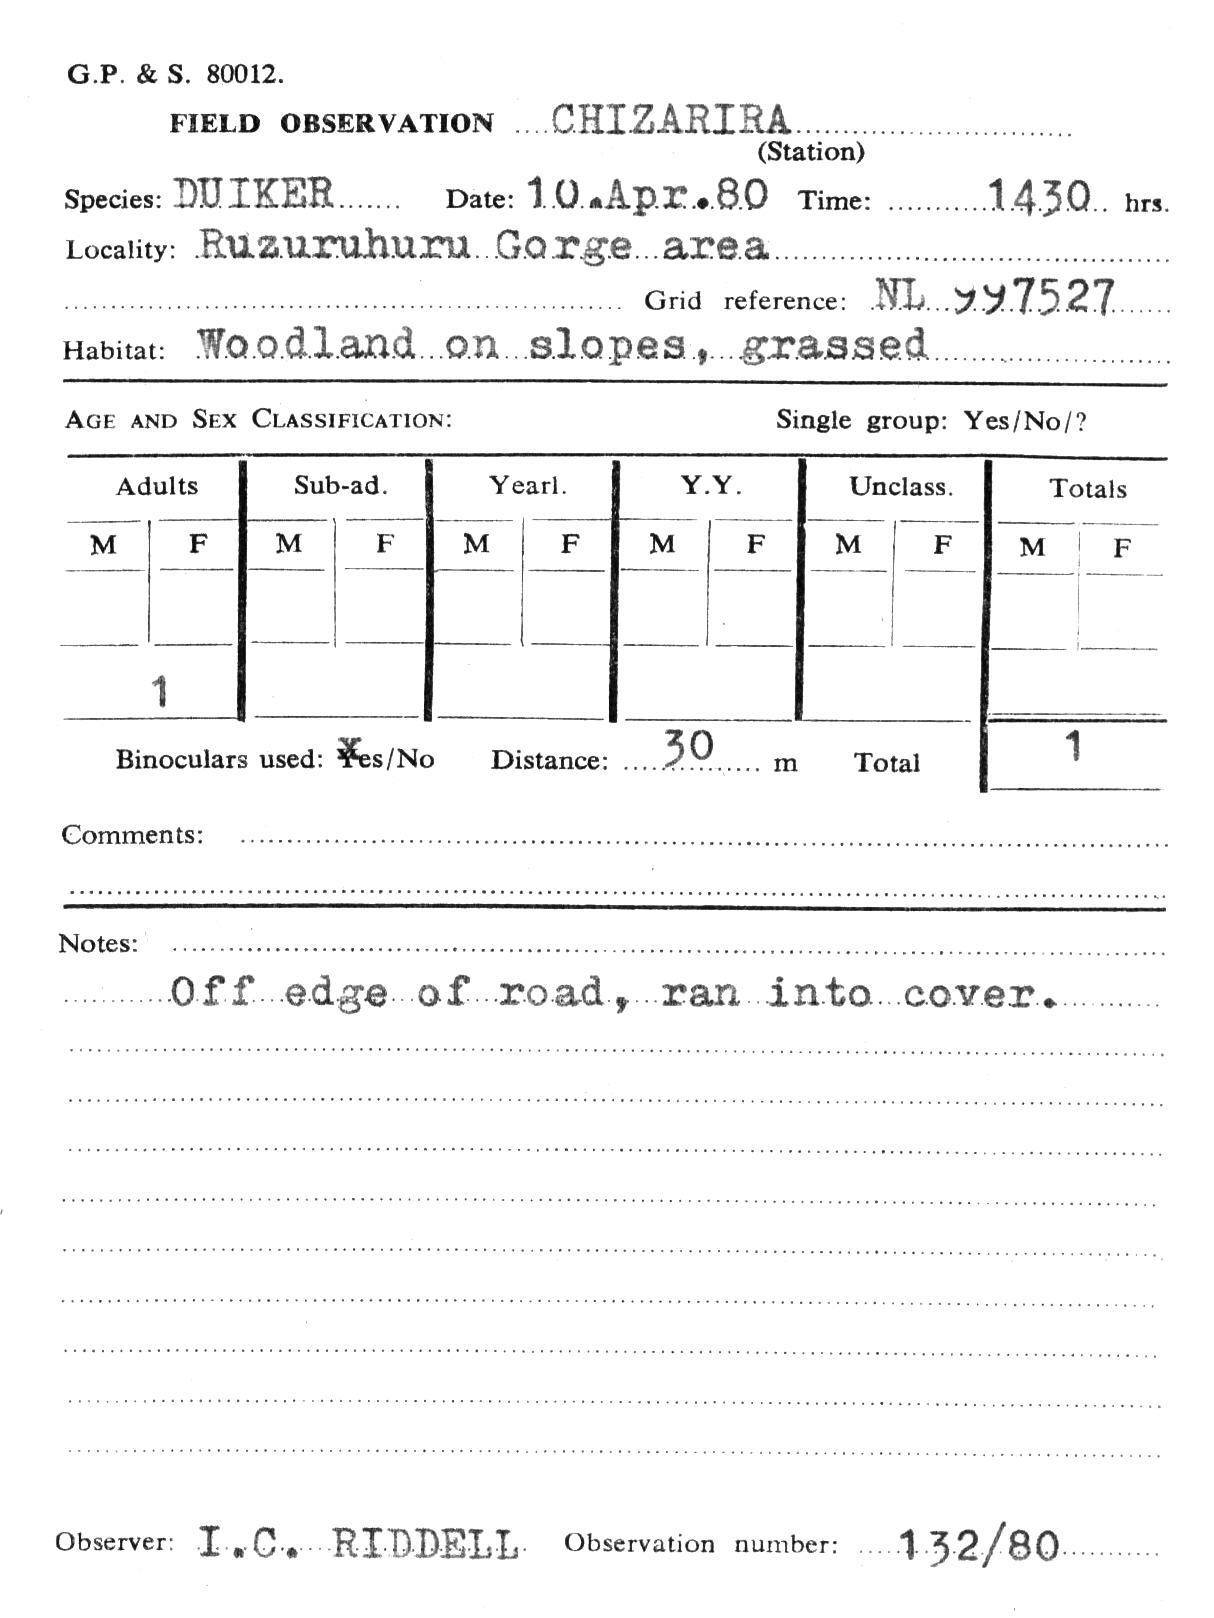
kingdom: Animalia
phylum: Chordata
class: Mammalia
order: Artiodactyla
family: Bovidae
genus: Sylvicapra
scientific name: Sylvicapra grimmia
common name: Bush duiker
